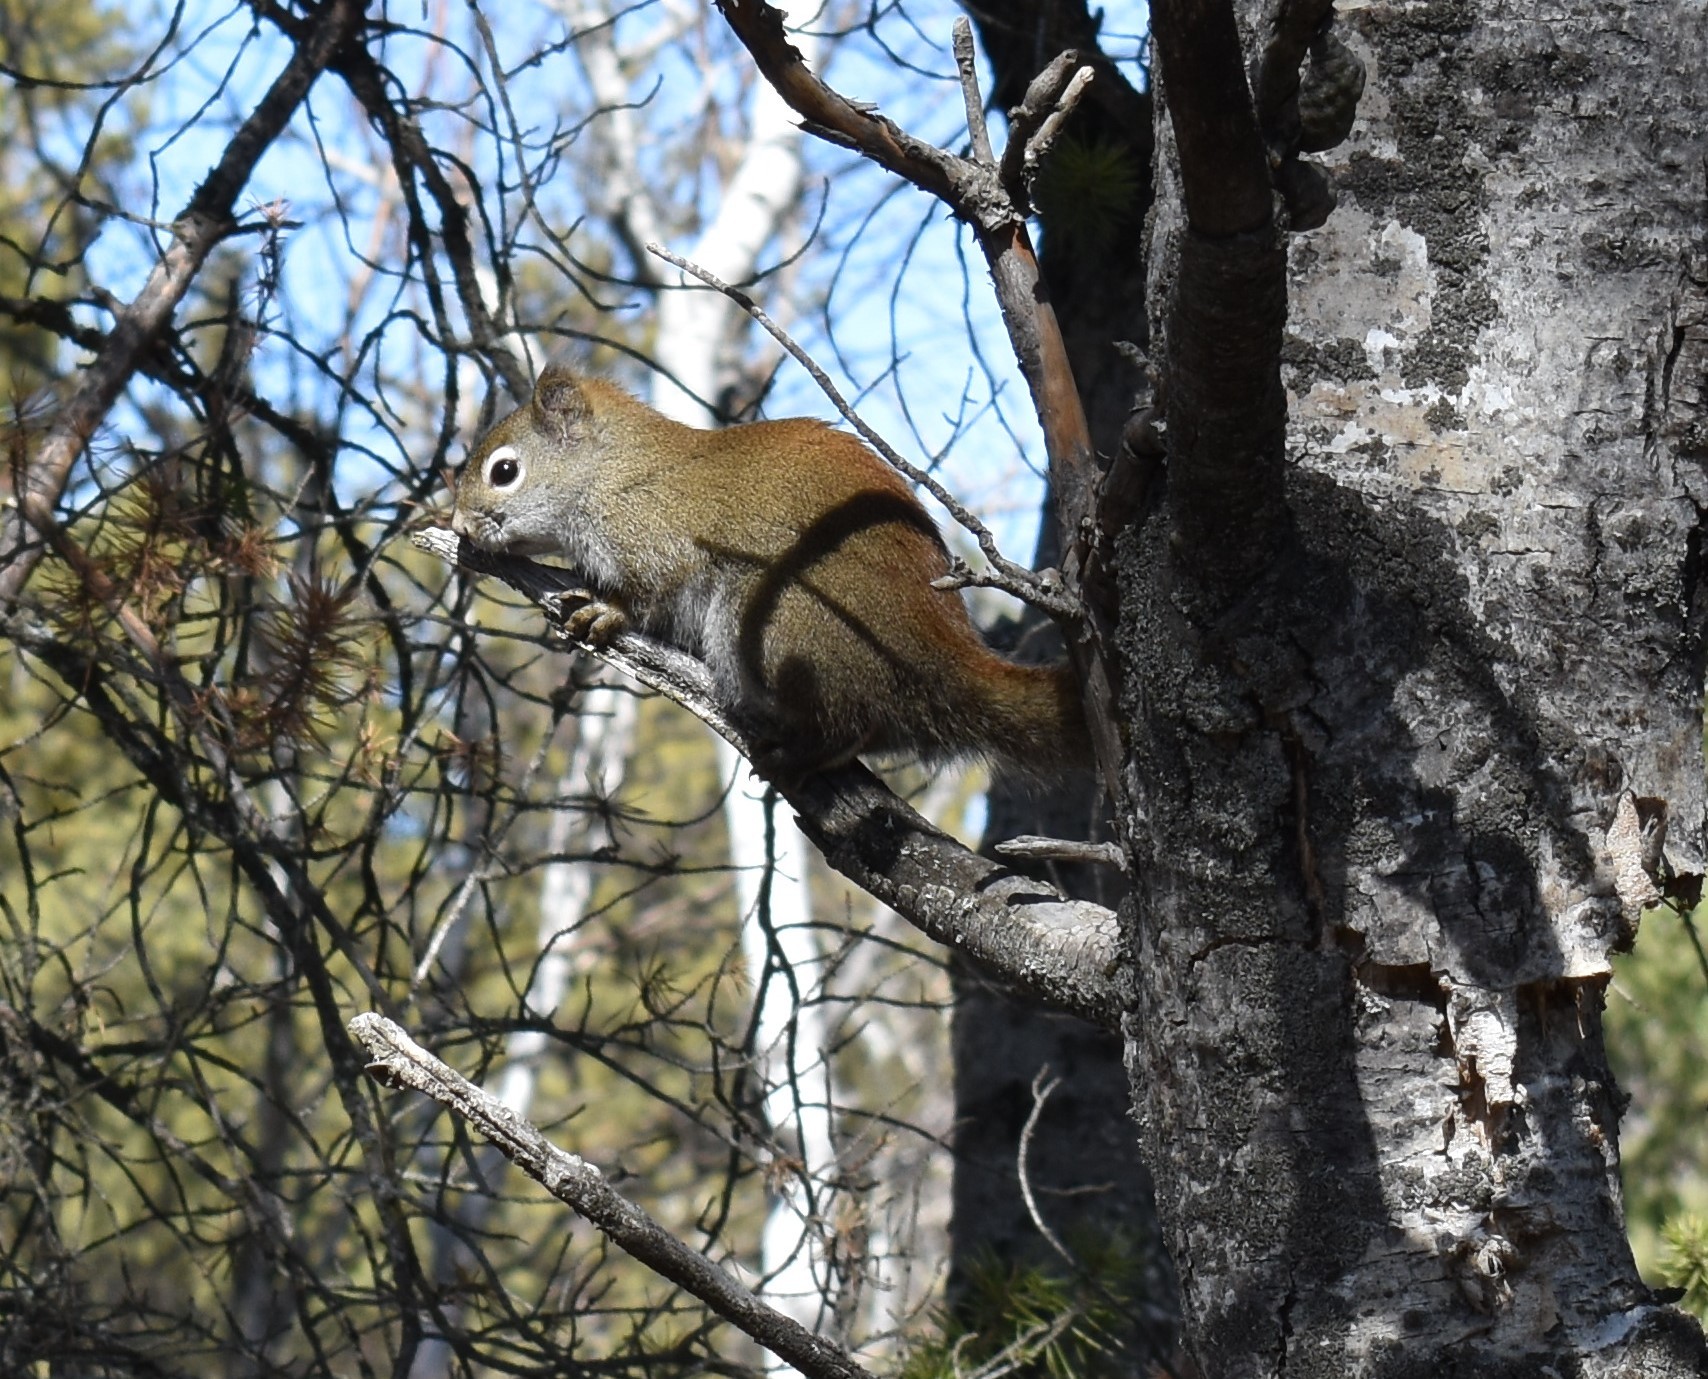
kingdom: Animalia
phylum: Chordata
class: Mammalia
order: Rodentia
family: Sciuridae
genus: Tamiasciurus
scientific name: Tamiasciurus hudsonicus
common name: Red squirrel
